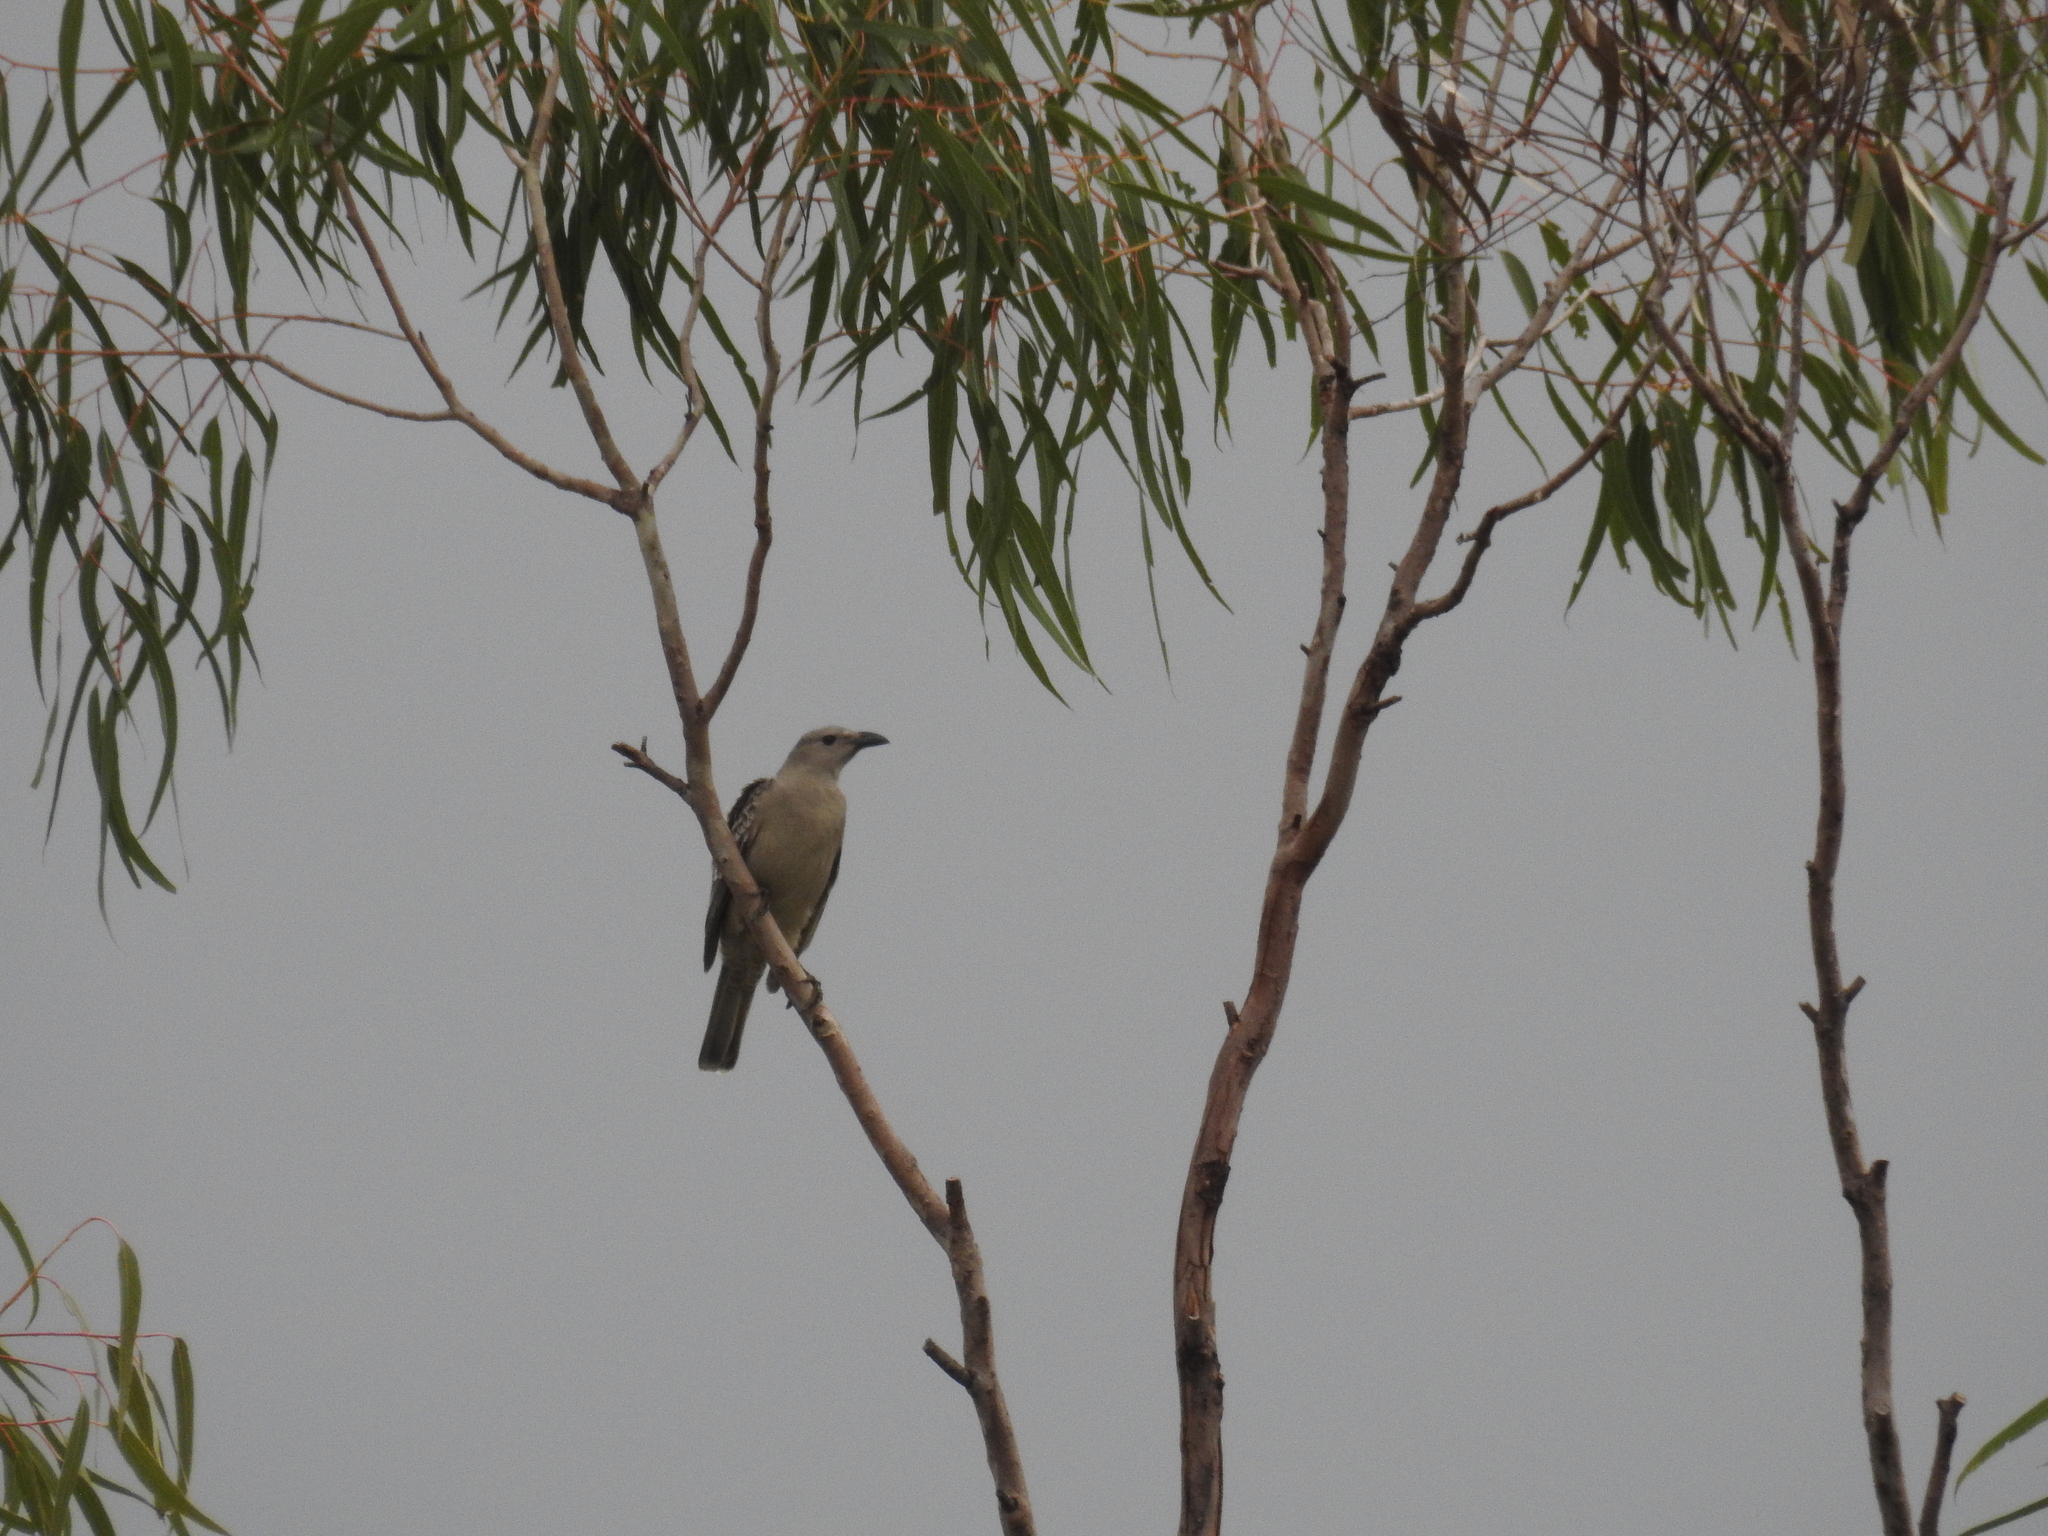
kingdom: Animalia
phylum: Chordata
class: Aves
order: Passeriformes
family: Ptilonorhynchidae
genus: Chlamydera
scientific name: Chlamydera nuchalis
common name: Great bowerbird
